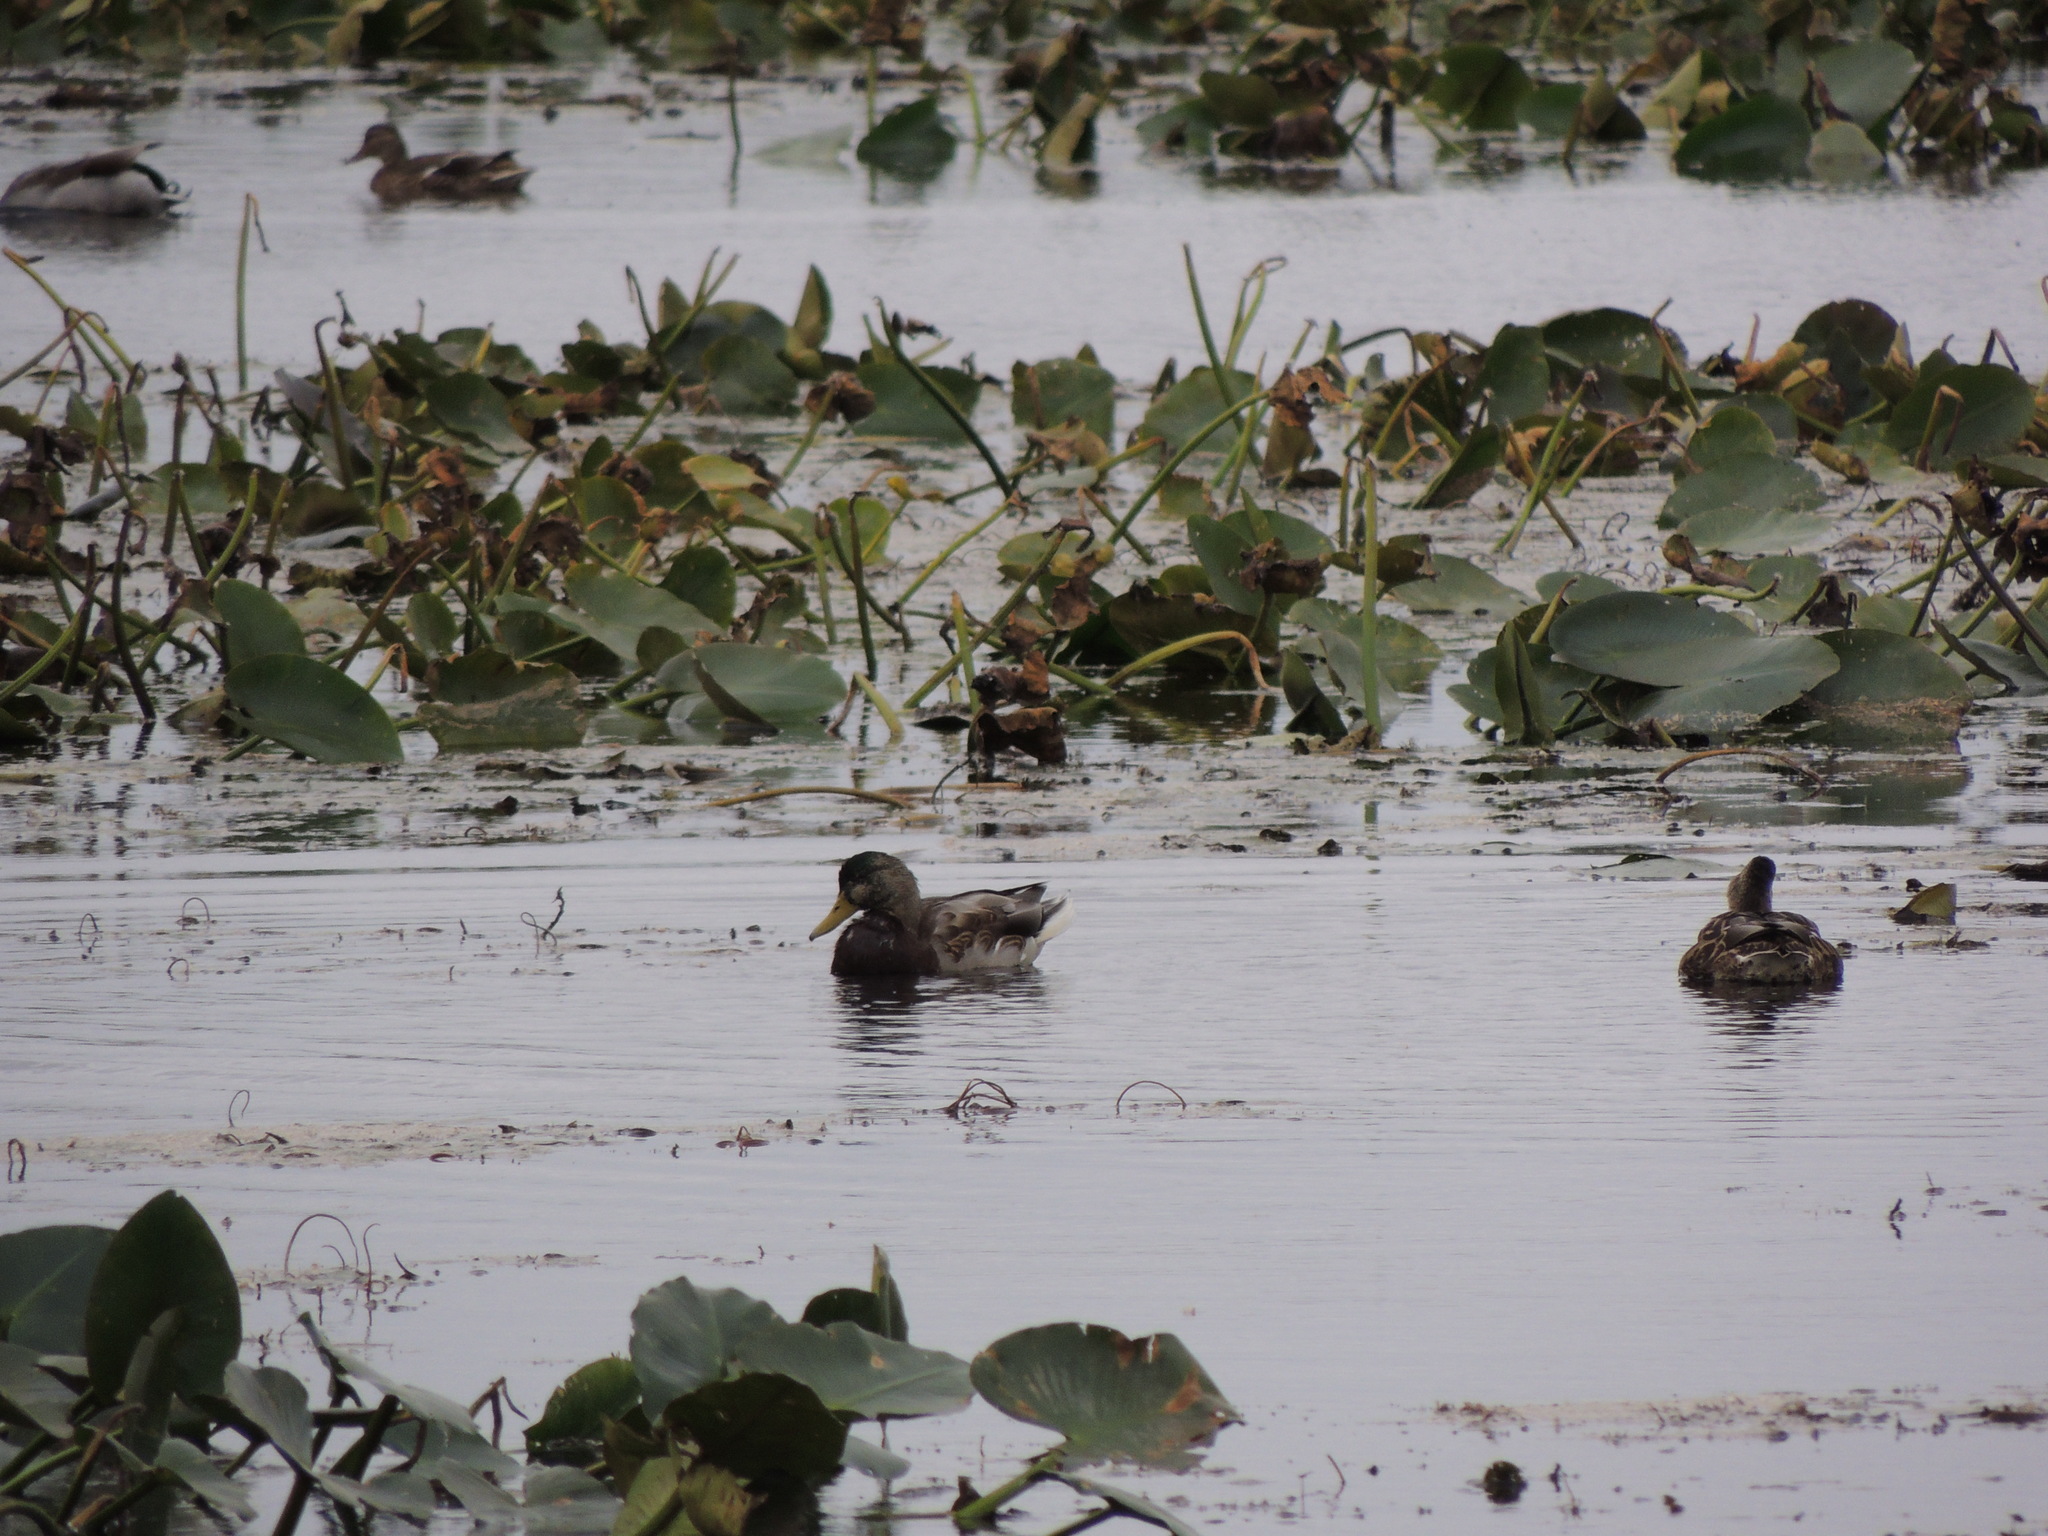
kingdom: Animalia
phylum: Chordata
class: Aves
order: Anseriformes
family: Anatidae
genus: Anas
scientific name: Anas platyrhynchos
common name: Mallard
